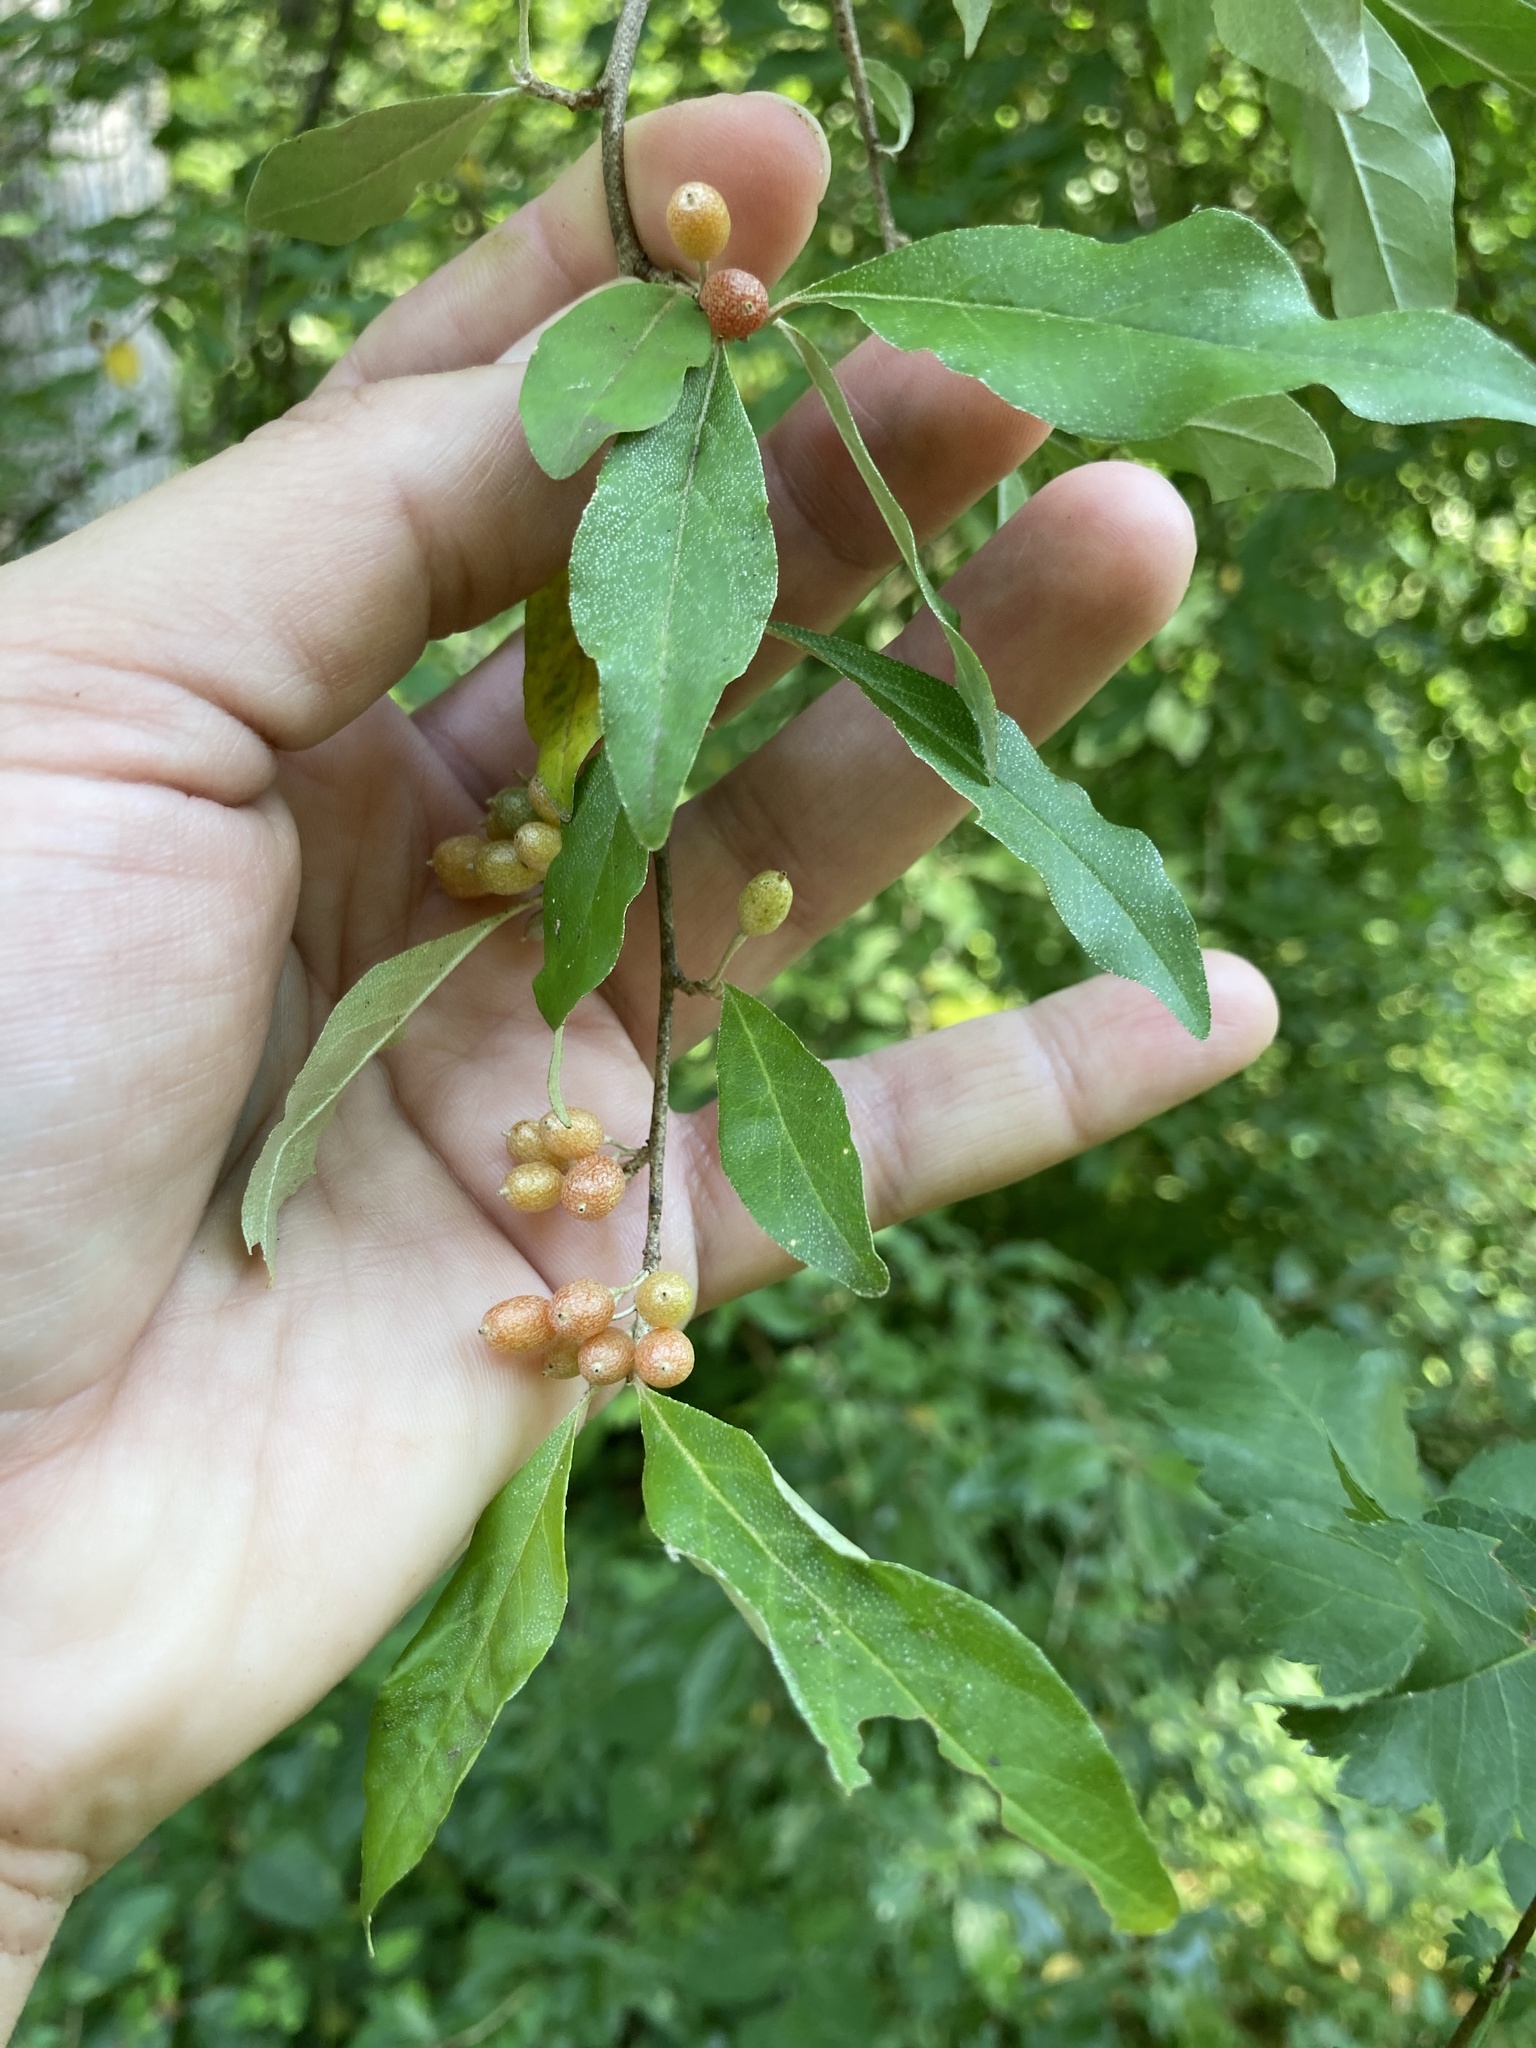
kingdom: Plantae
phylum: Tracheophyta
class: Magnoliopsida
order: Rosales
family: Elaeagnaceae
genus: Elaeagnus
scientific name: Elaeagnus umbellata
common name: Autumn olive
